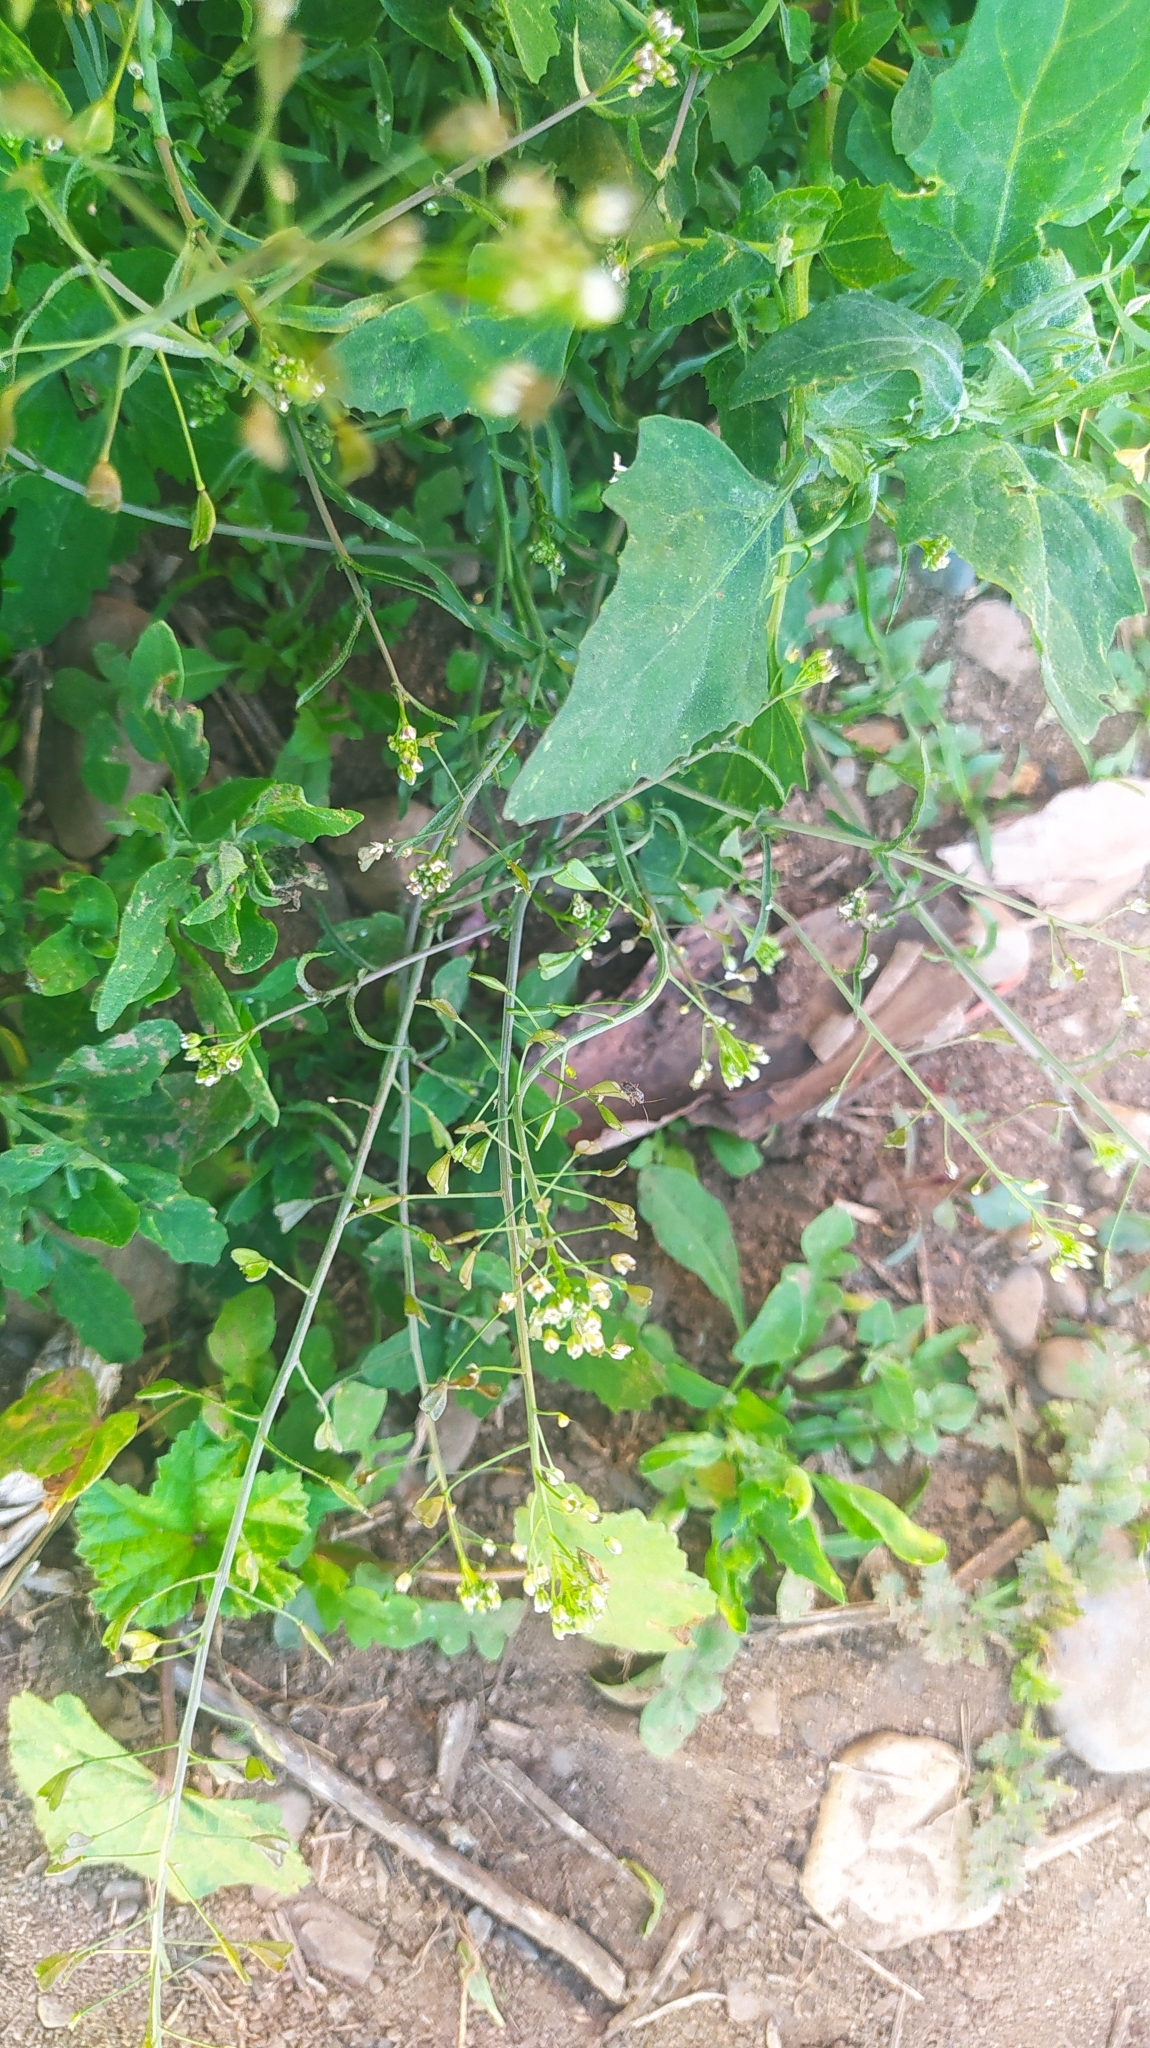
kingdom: Plantae
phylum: Tracheophyta
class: Magnoliopsida
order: Brassicales
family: Brassicaceae
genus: Capsella
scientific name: Capsella bursa-pastoris
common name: Shepherd's purse
